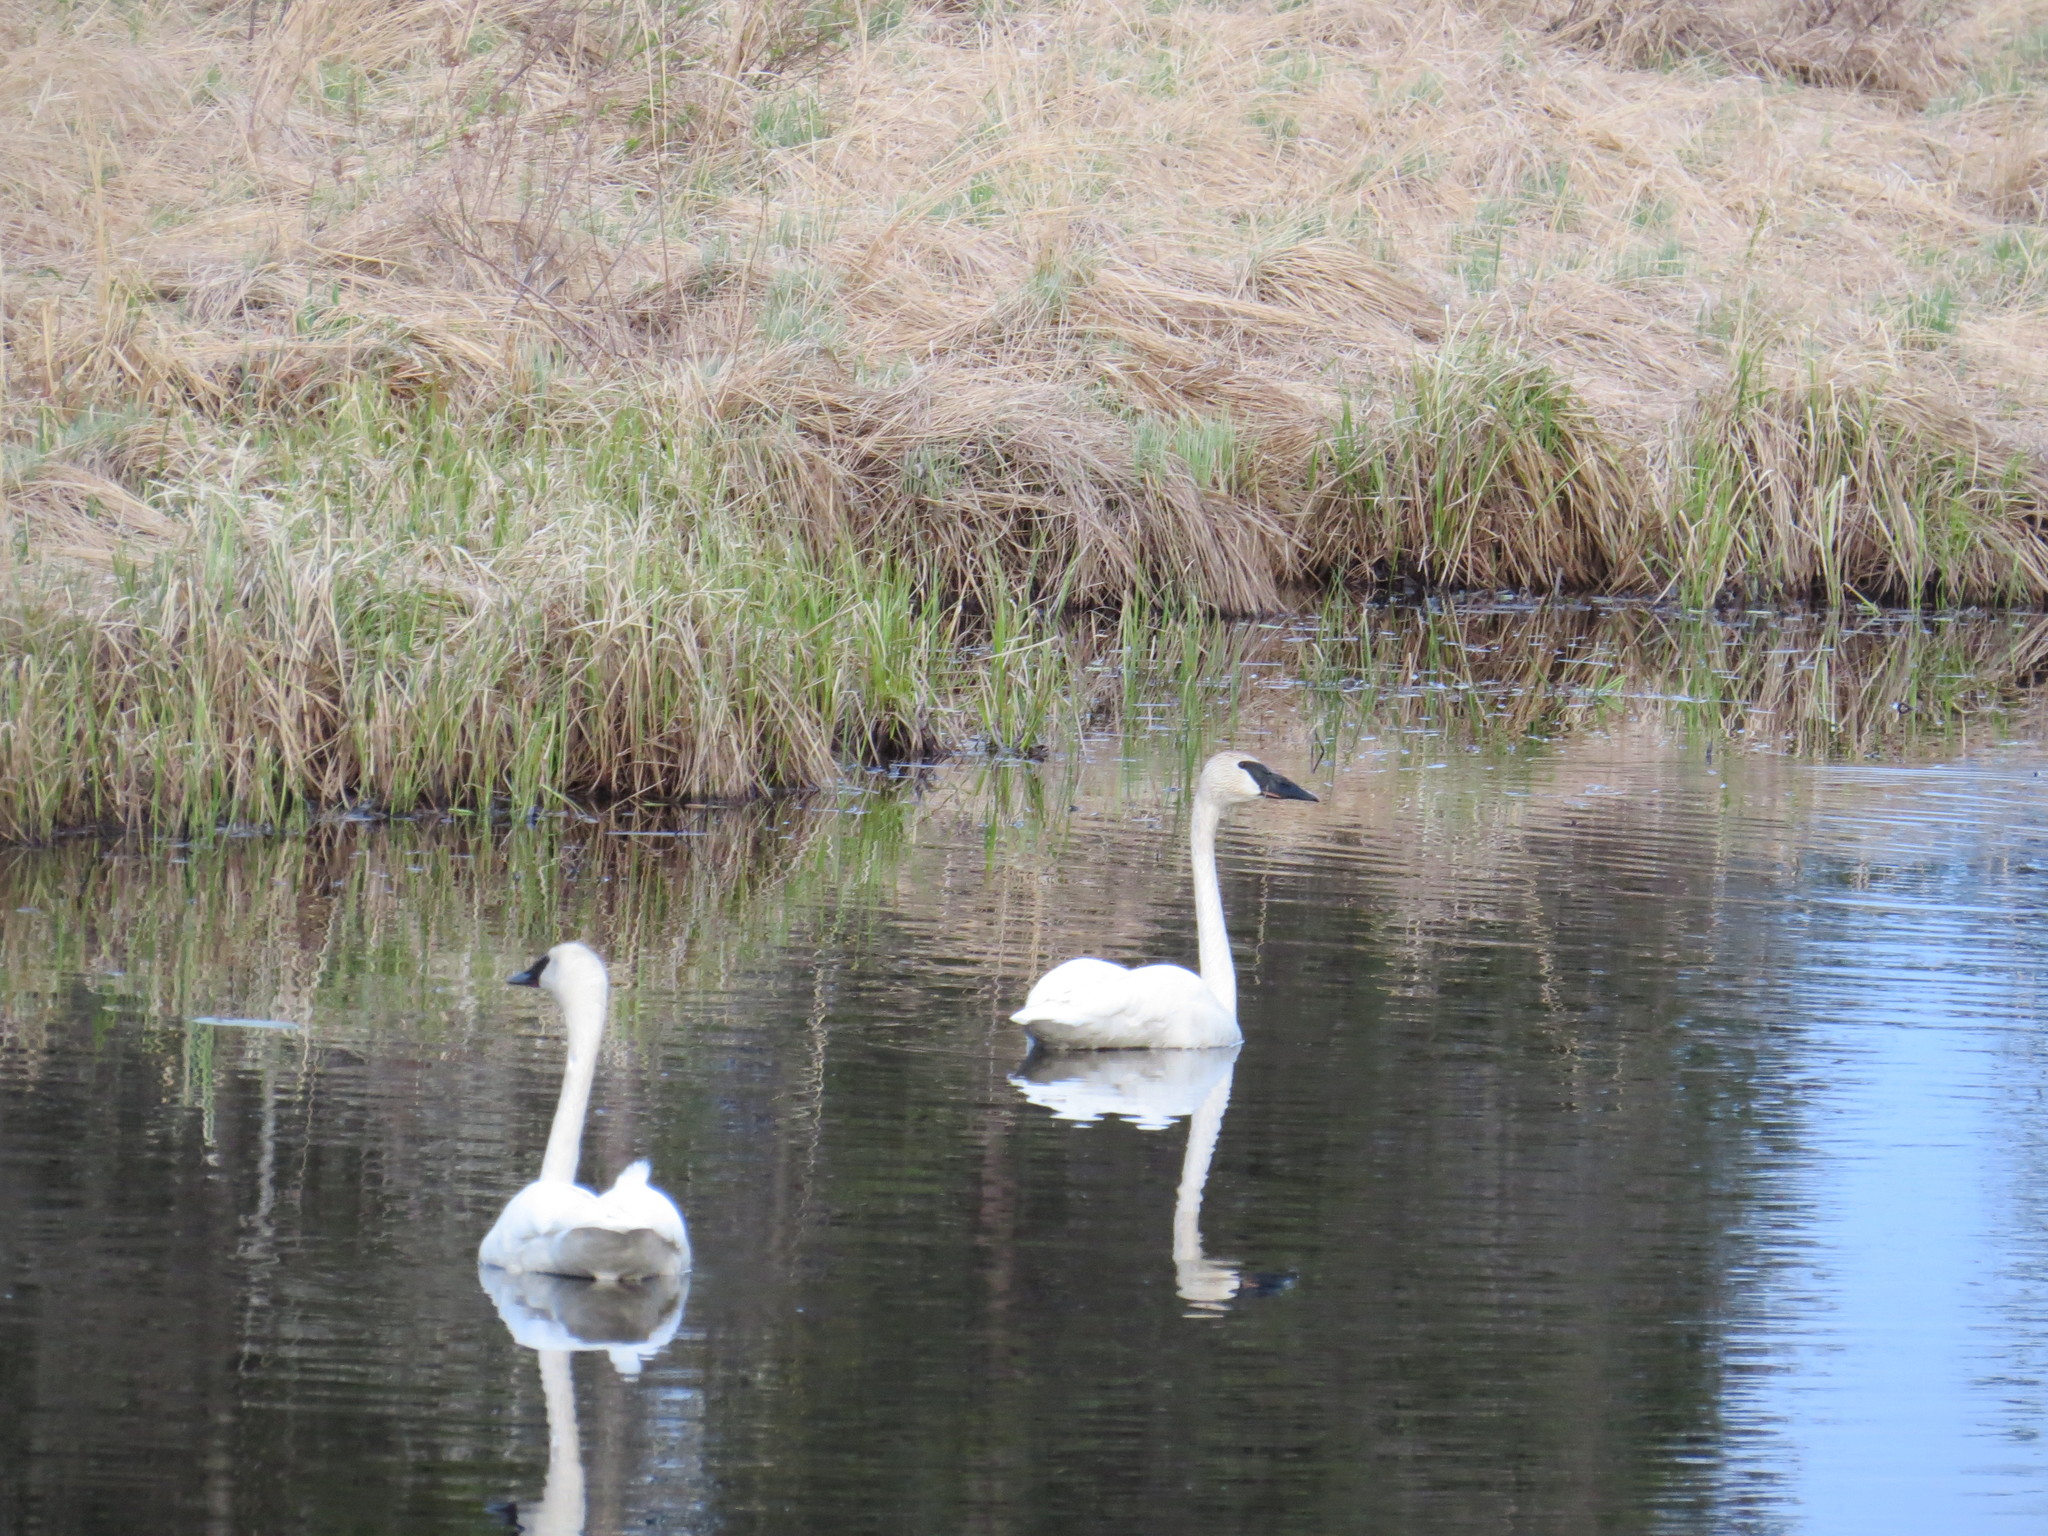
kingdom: Animalia
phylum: Chordata
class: Aves
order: Anseriformes
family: Anatidae
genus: Cygnus
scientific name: Cygnus buccinator
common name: Trumpeter swan
